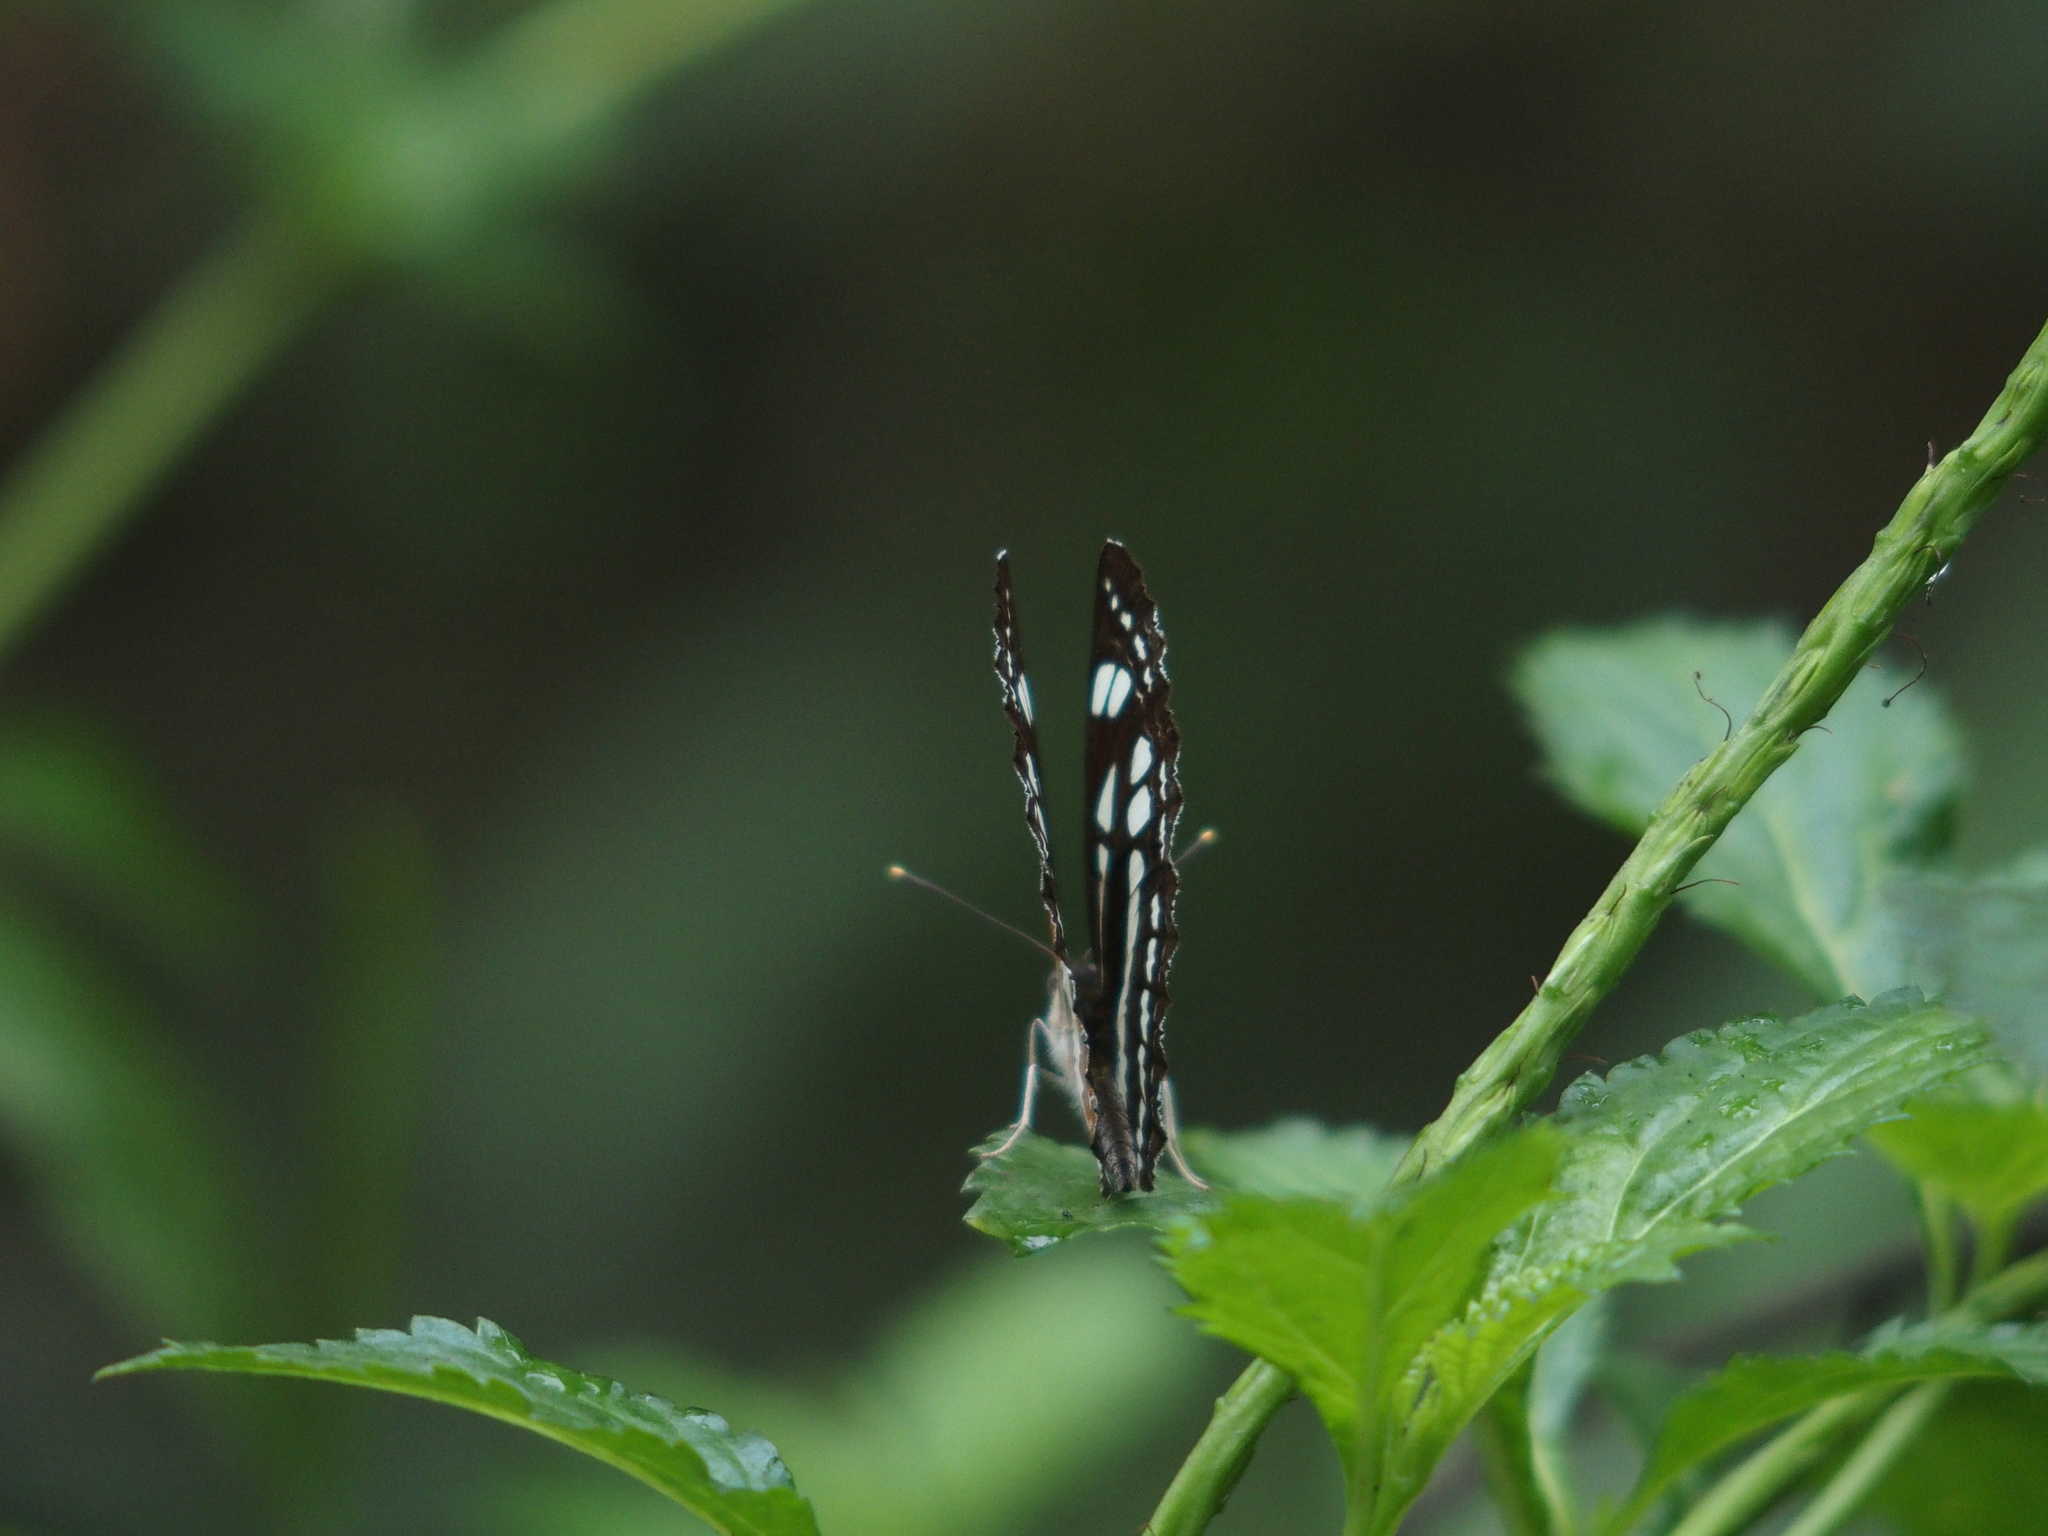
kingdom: Animalia
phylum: Arthropoda
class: Insecta
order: Lepidoptera
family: Nymphalidae
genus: Neptis
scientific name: Neptis hylas
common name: Common sailer
